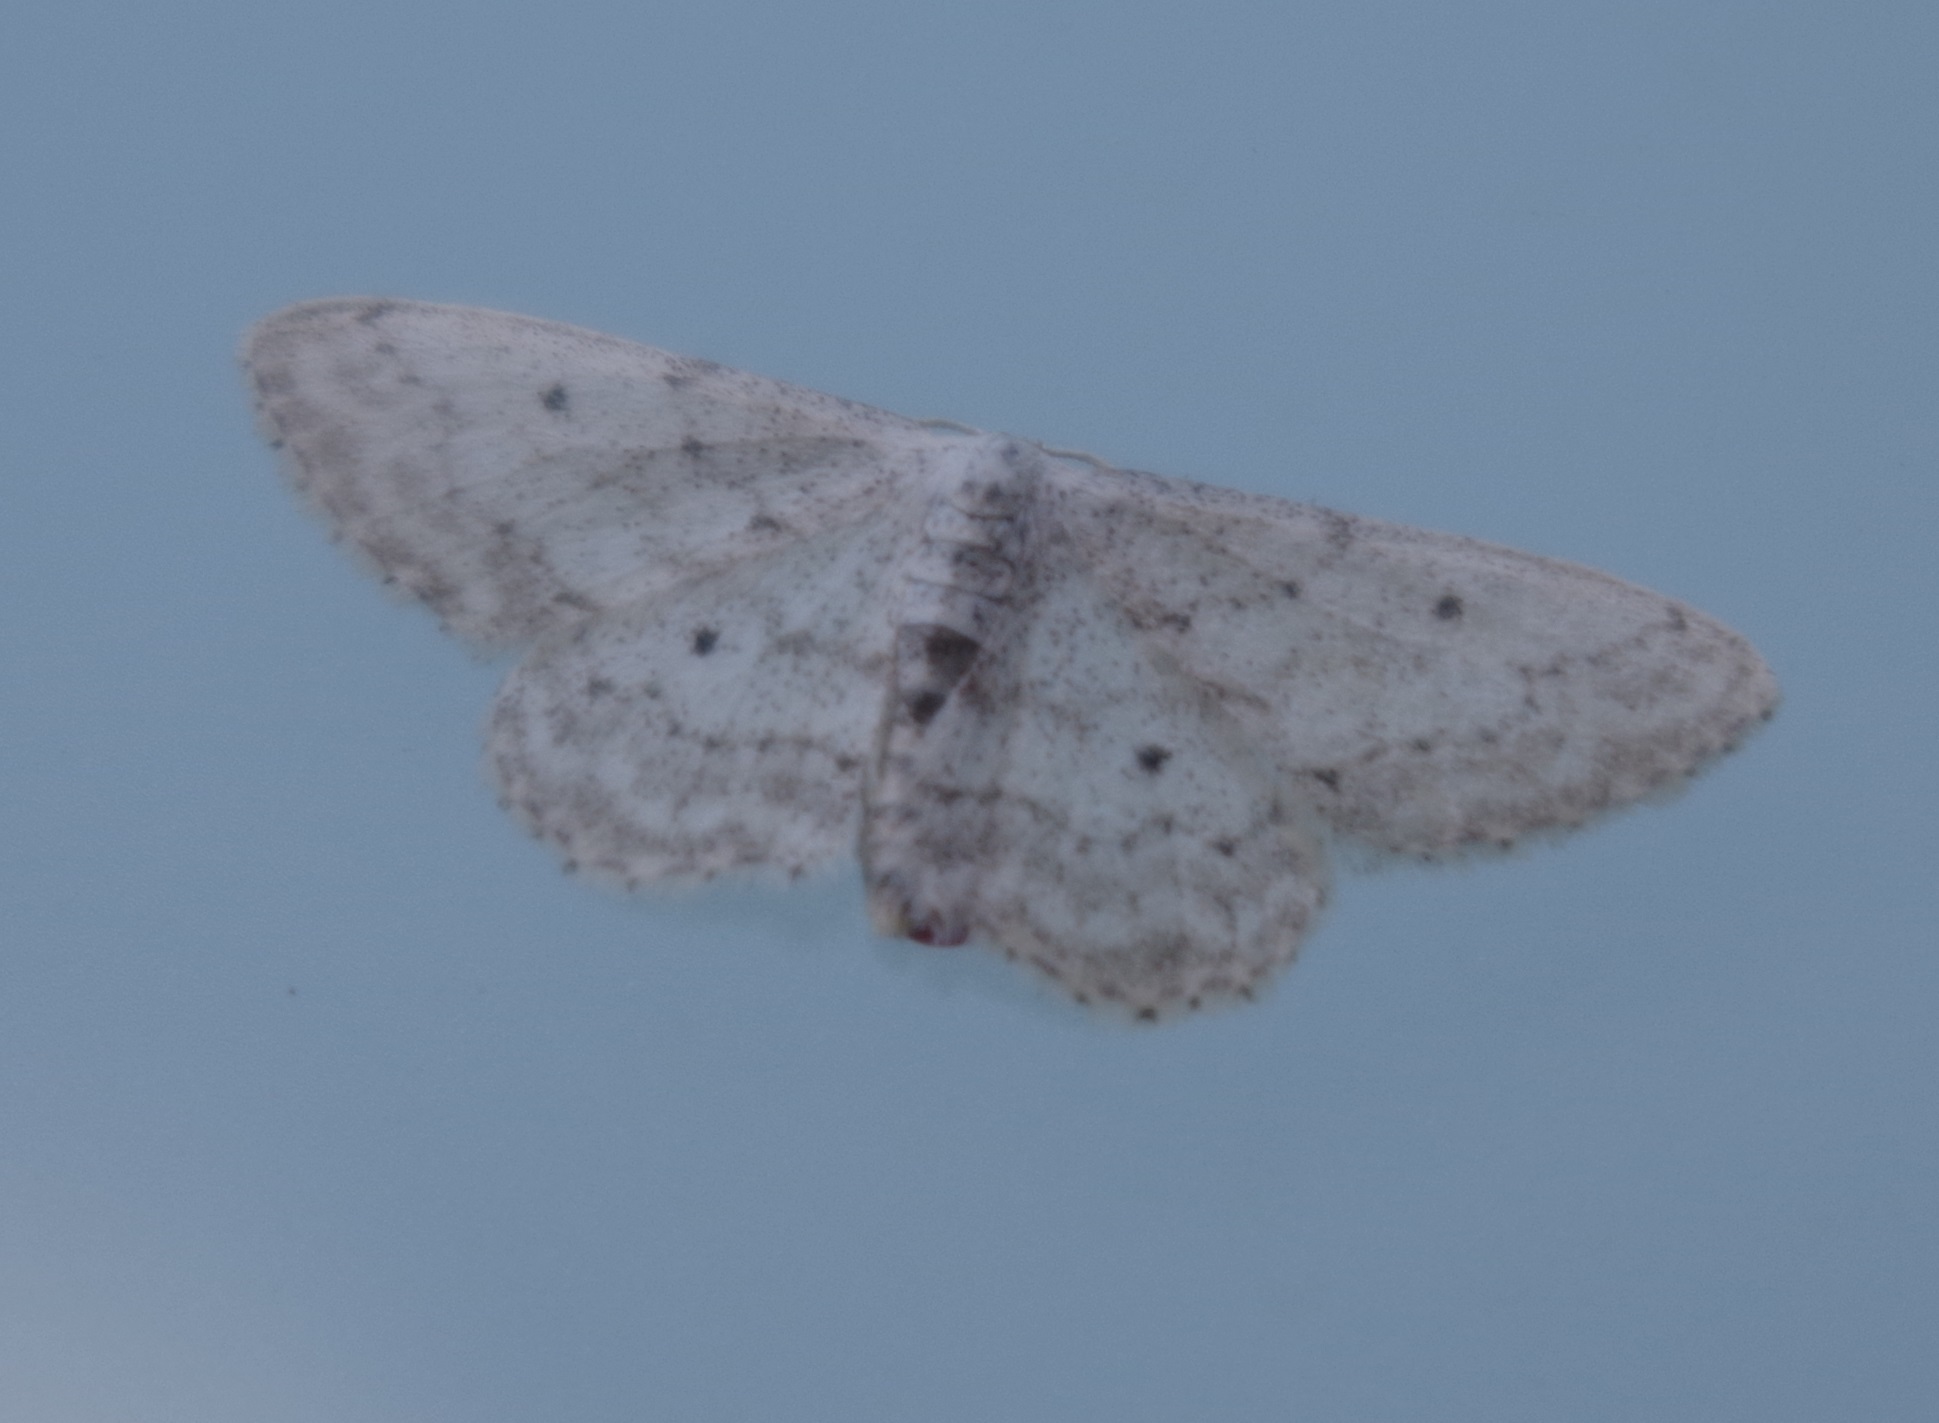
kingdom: Animalia
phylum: Arthropoda
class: Insecta
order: Lepidoptera
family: Geometridae
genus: Idaea
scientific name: Idaea seriata
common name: Small dusty wave
